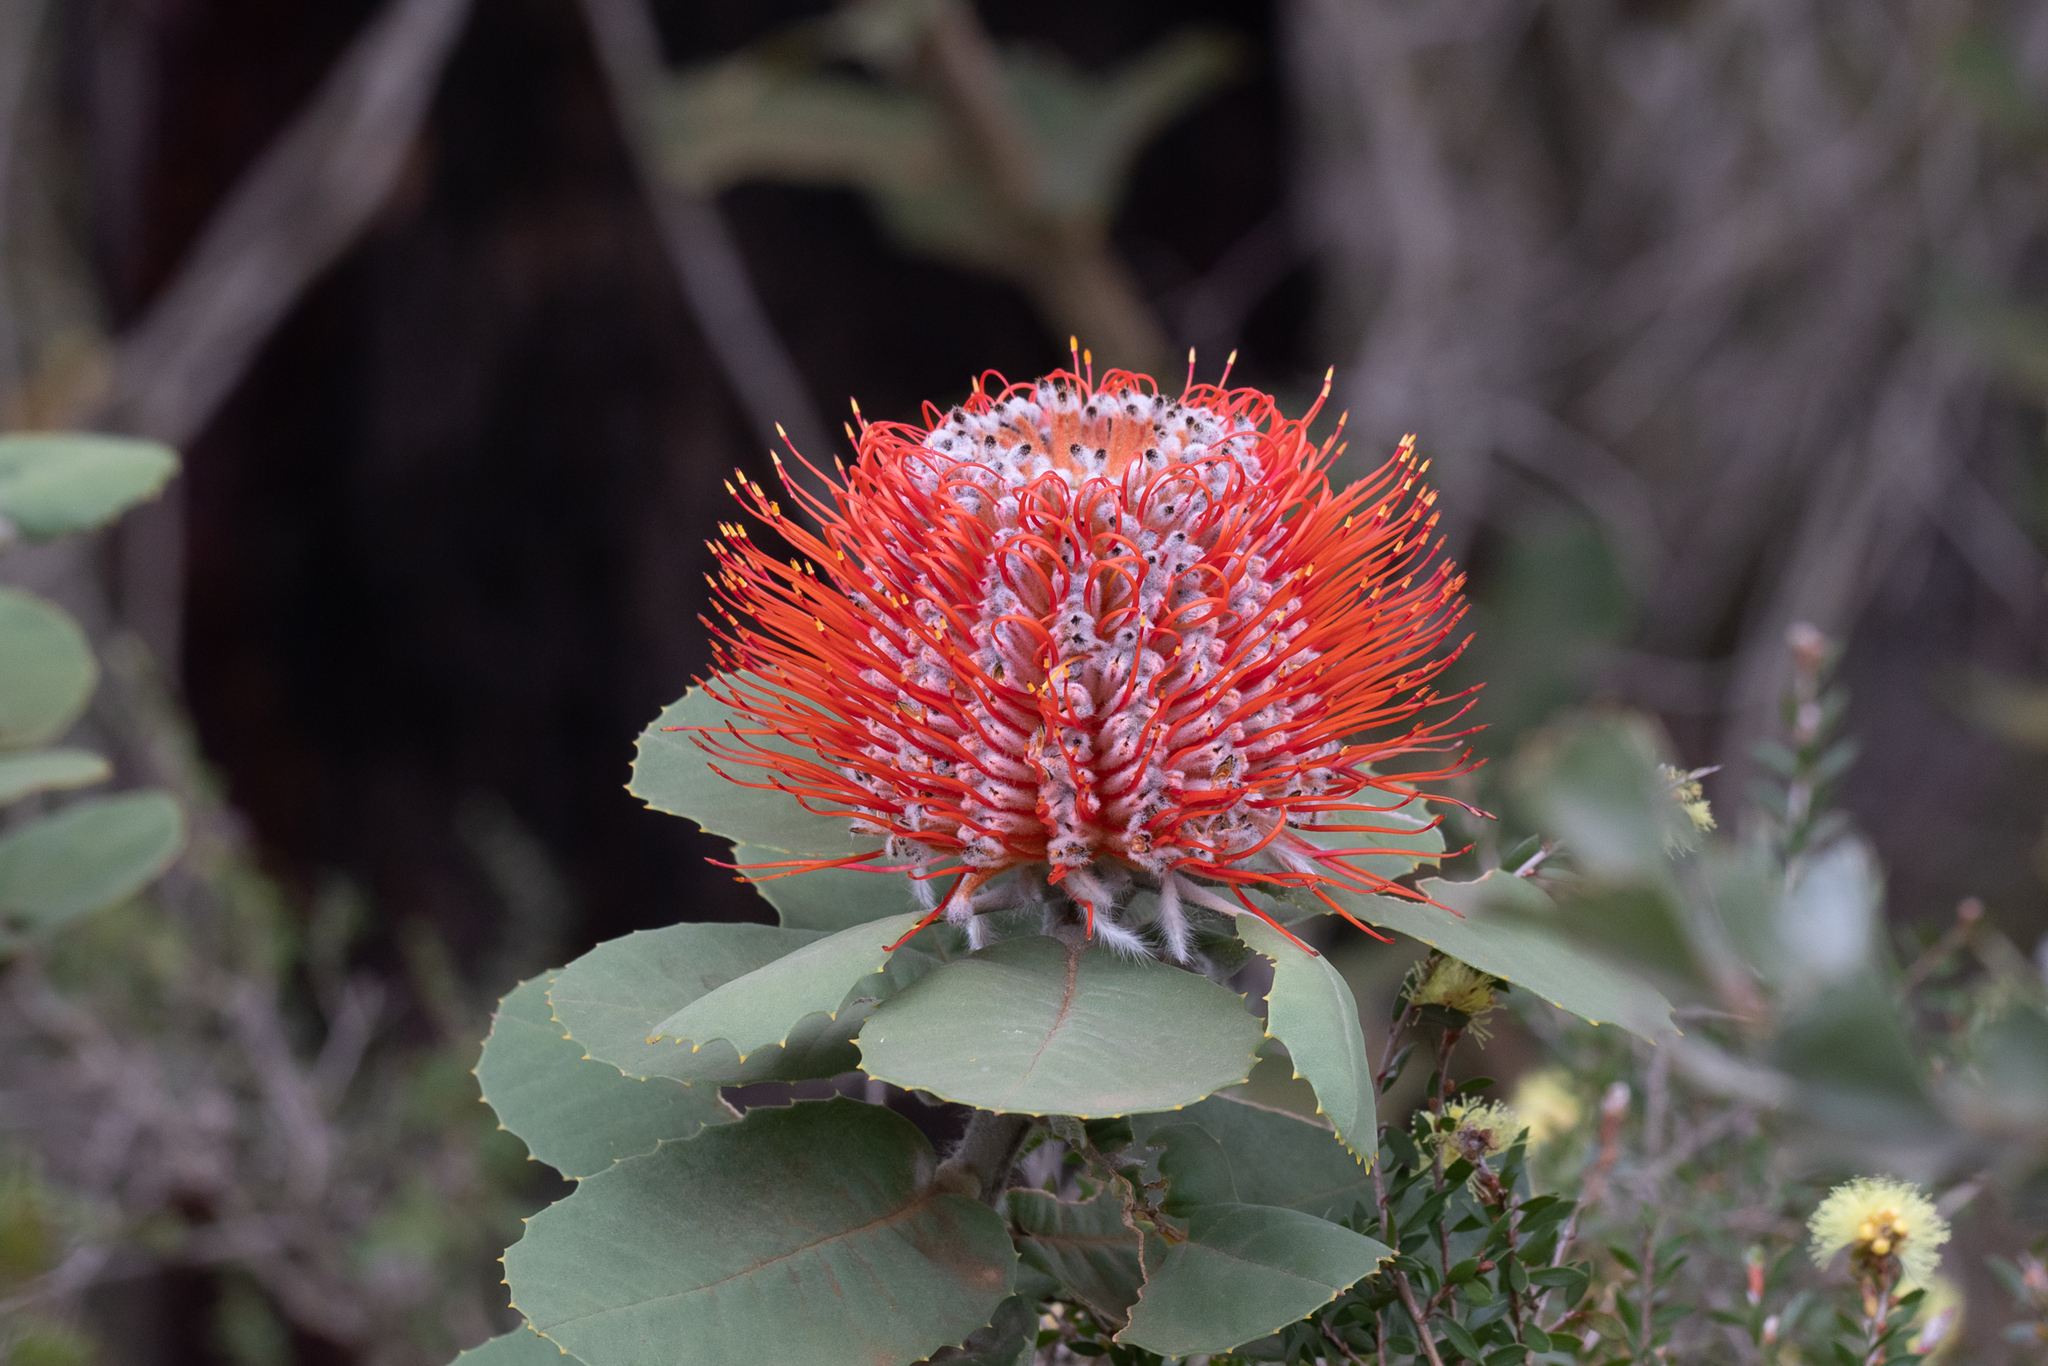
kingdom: Plantae
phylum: Tracheophyta
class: Magnoliopsida
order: Proteales
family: Proteaceae
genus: Banksia
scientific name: Banksia coccinea
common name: Scarlet banksia
